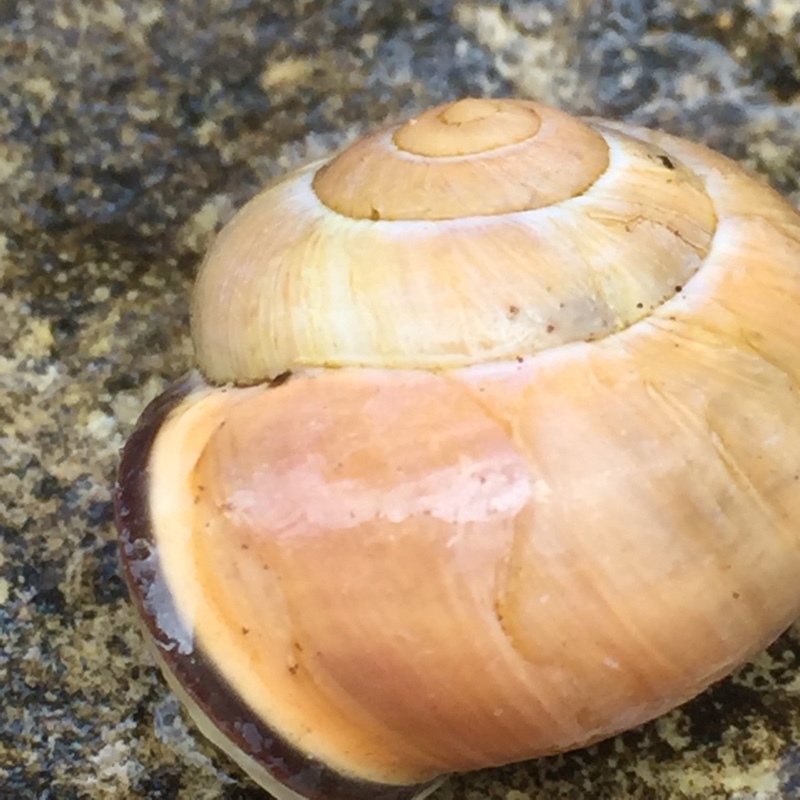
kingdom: Animalia
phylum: Mollusca
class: Gastropoda
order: Stylommatophora
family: Helicidae
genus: Cepaea
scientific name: Cepaea nemoralis
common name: Grovesnail
